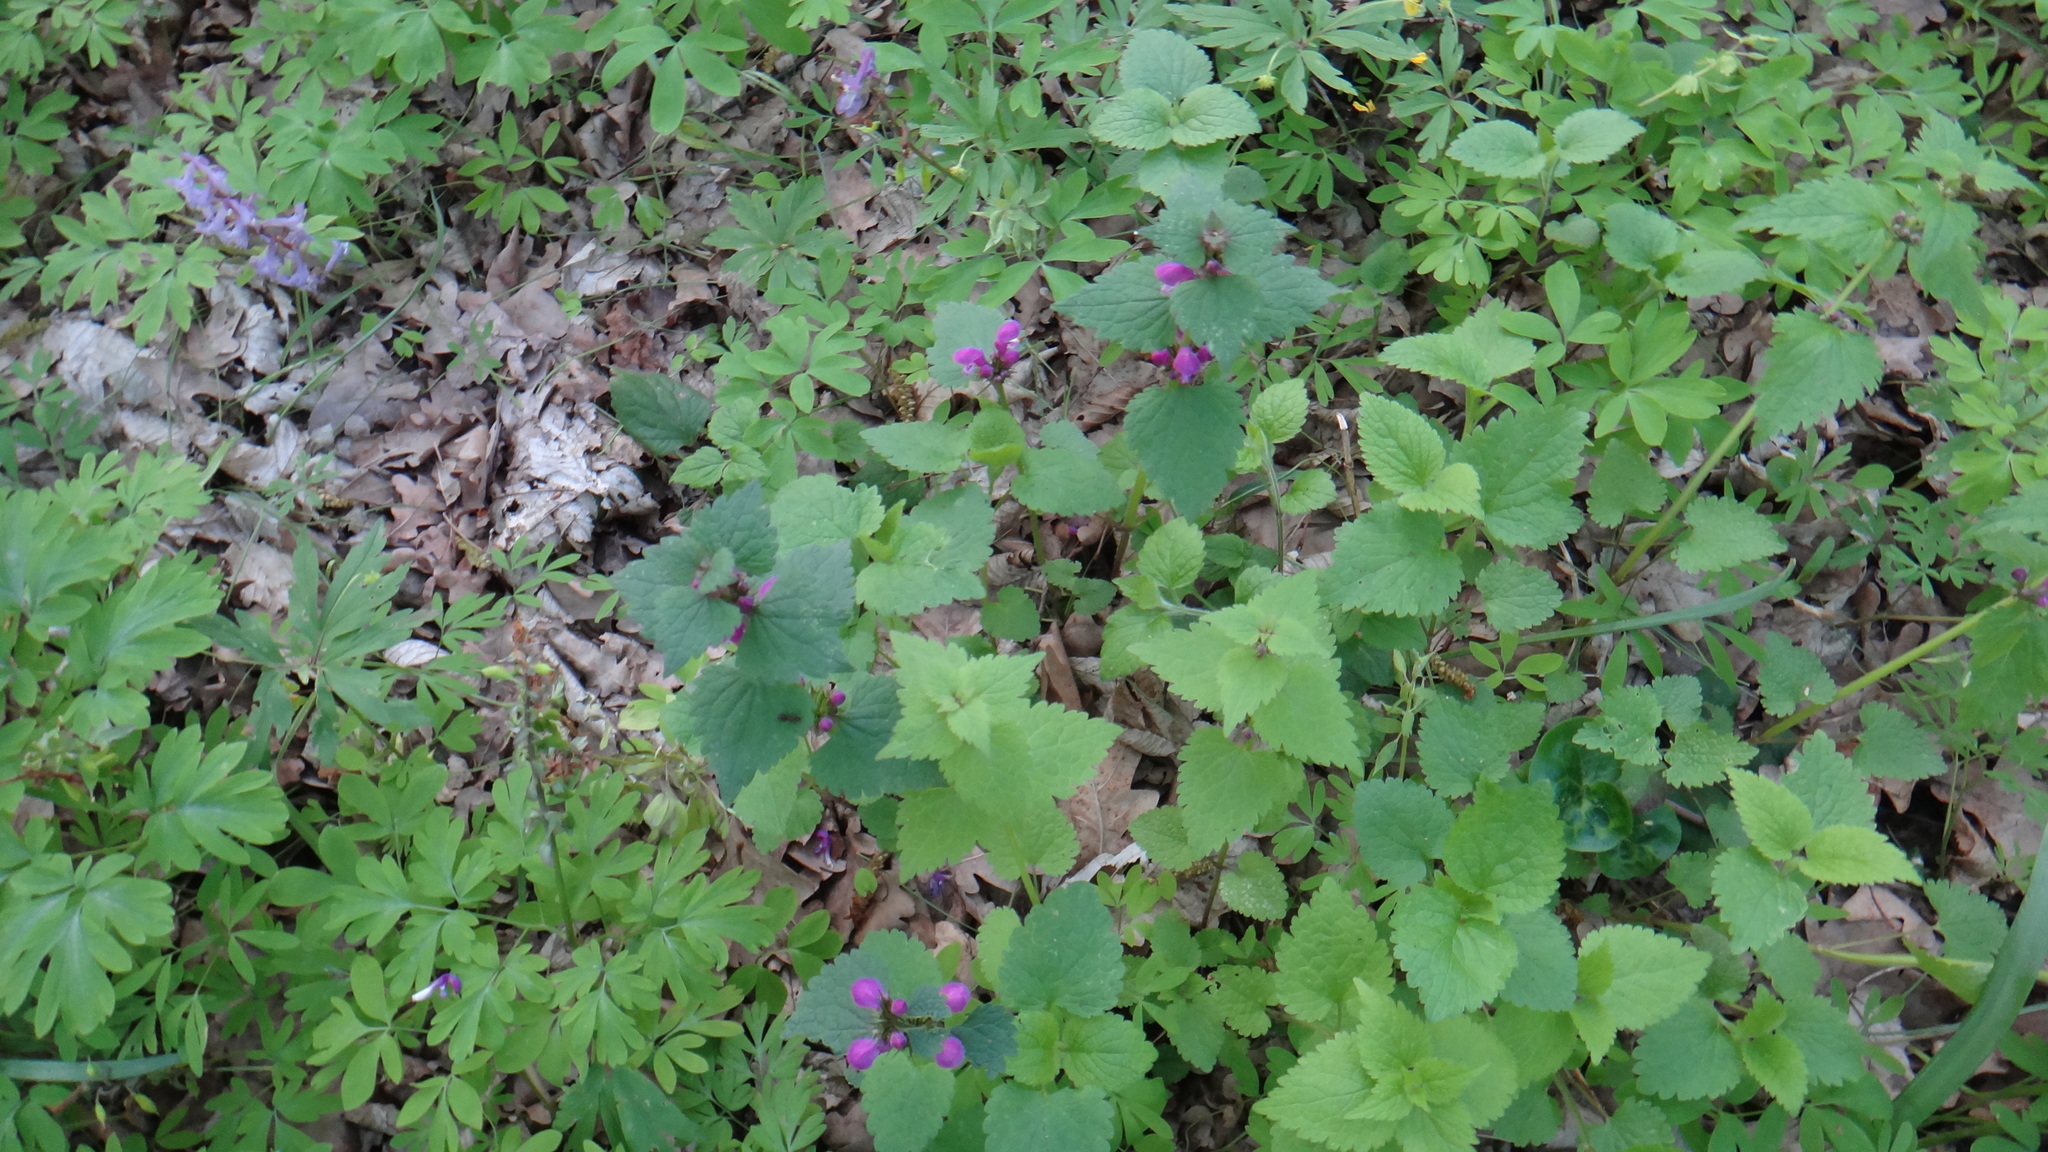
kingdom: Plantae
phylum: Tracheophyta
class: Magnoliopsida
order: Lamiales
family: Lamiaceae
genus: Lamium
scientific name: Lamium maculatum
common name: Spotted dead-nettle
